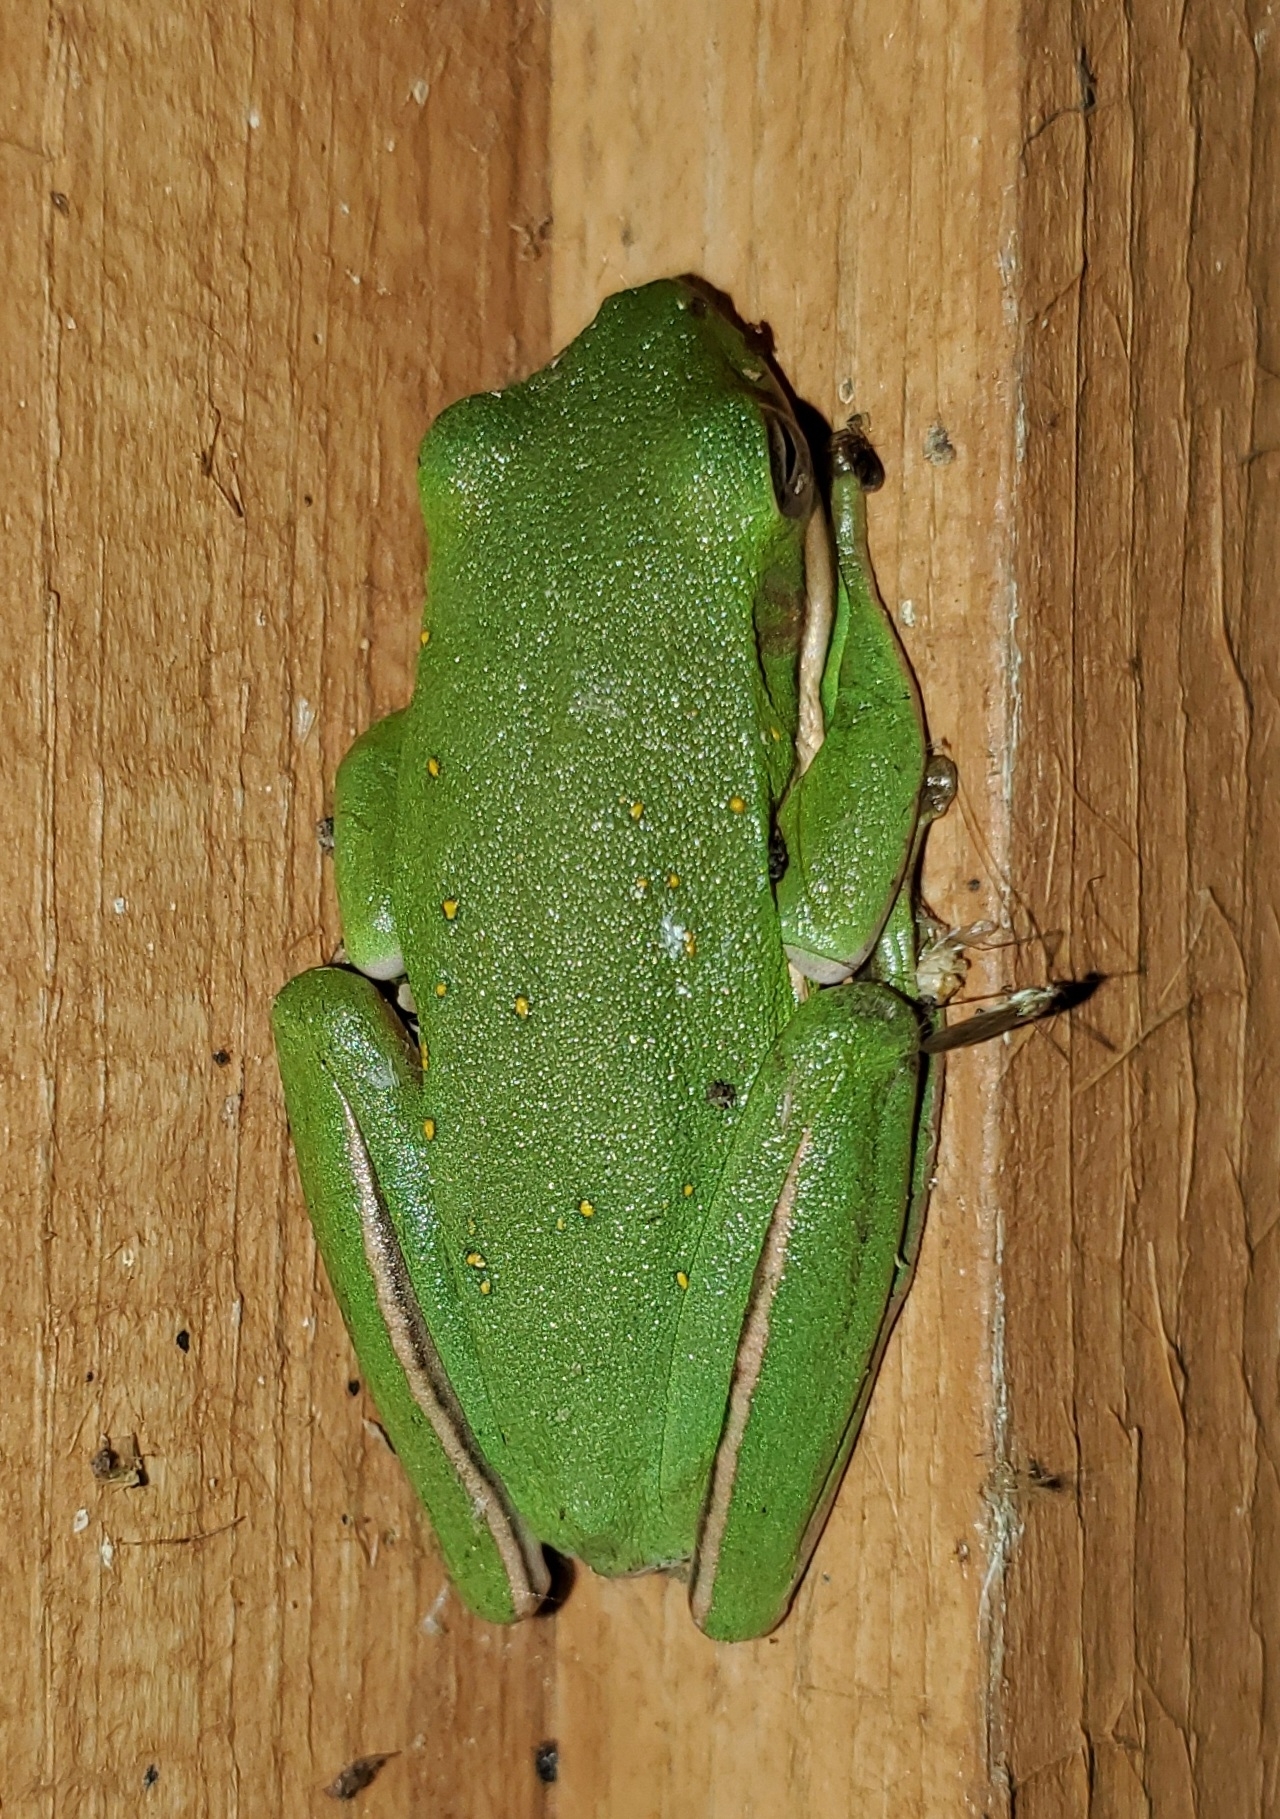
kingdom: Animalia
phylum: Chordata
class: Amphibia
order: Anura
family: Hylidae
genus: Dryophytes
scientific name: Dryophytes cinereus
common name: Green treefrog
